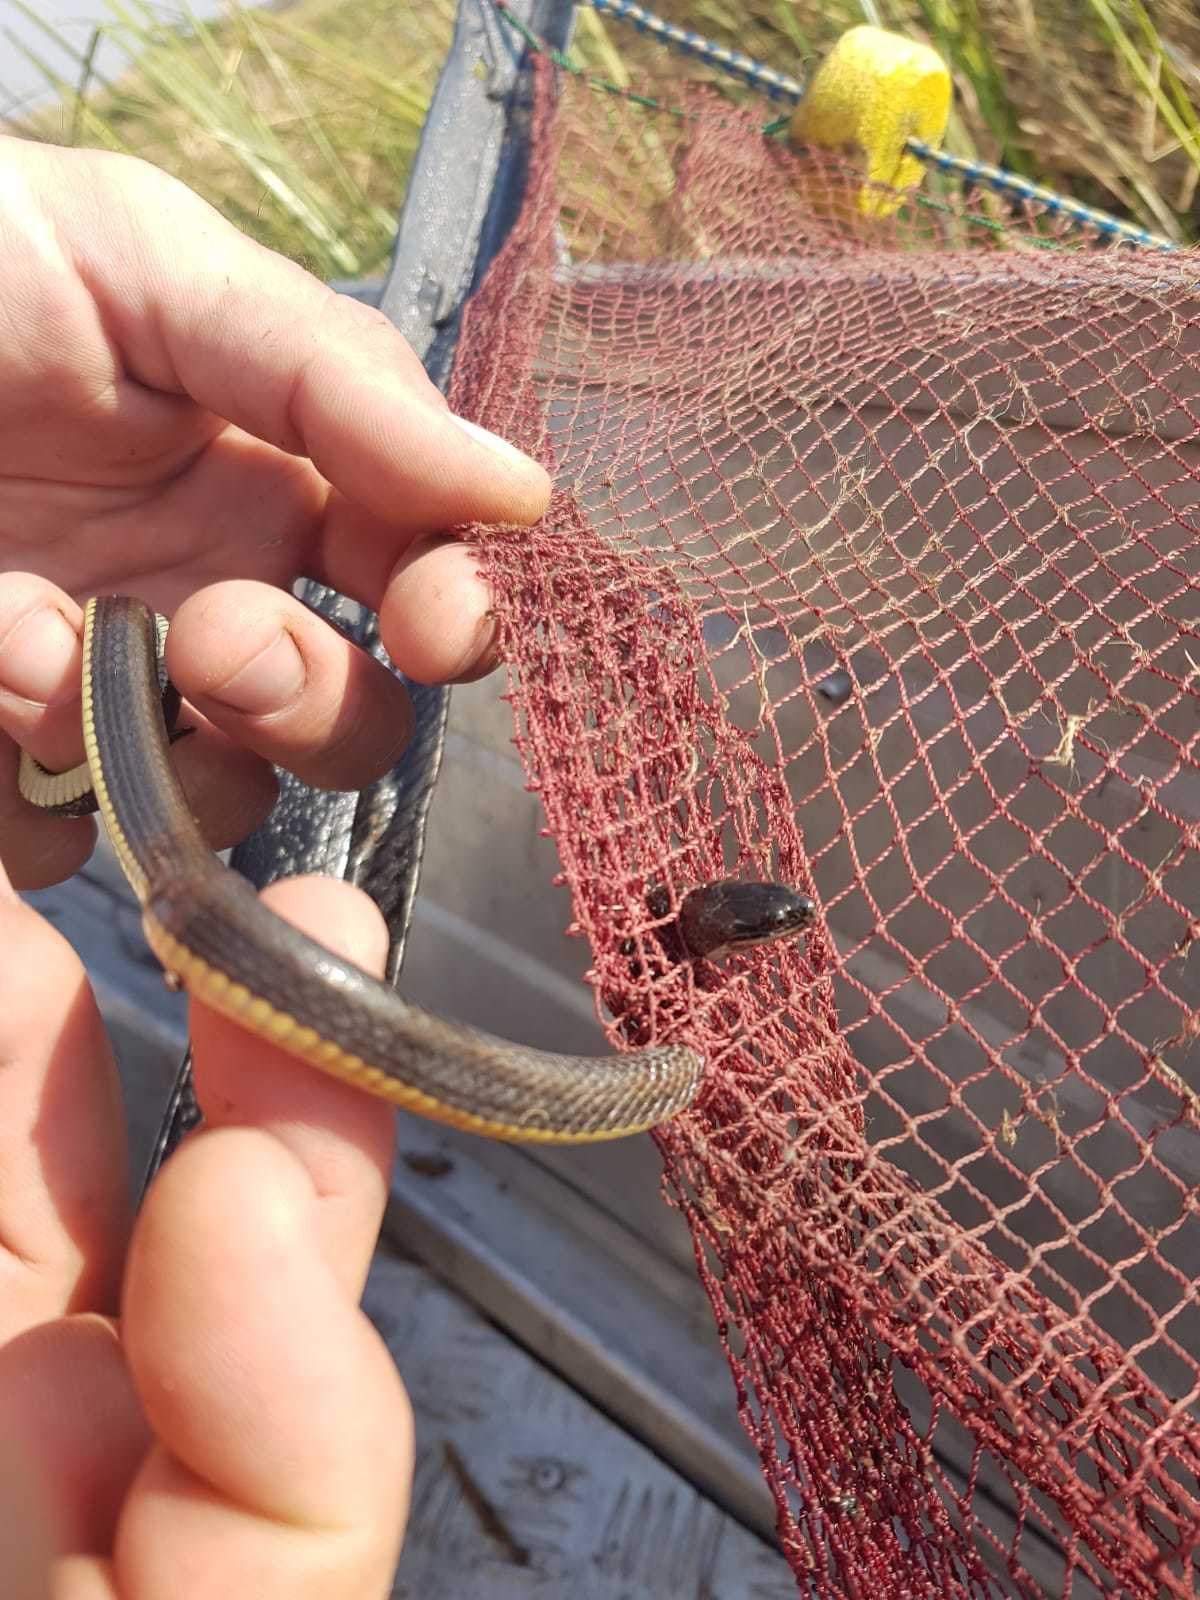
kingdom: Animalia
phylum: Chordata
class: Squamata
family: Colubridae
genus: Limnophis
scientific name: Limnophis bangweolicus
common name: Bangweulu water snake
